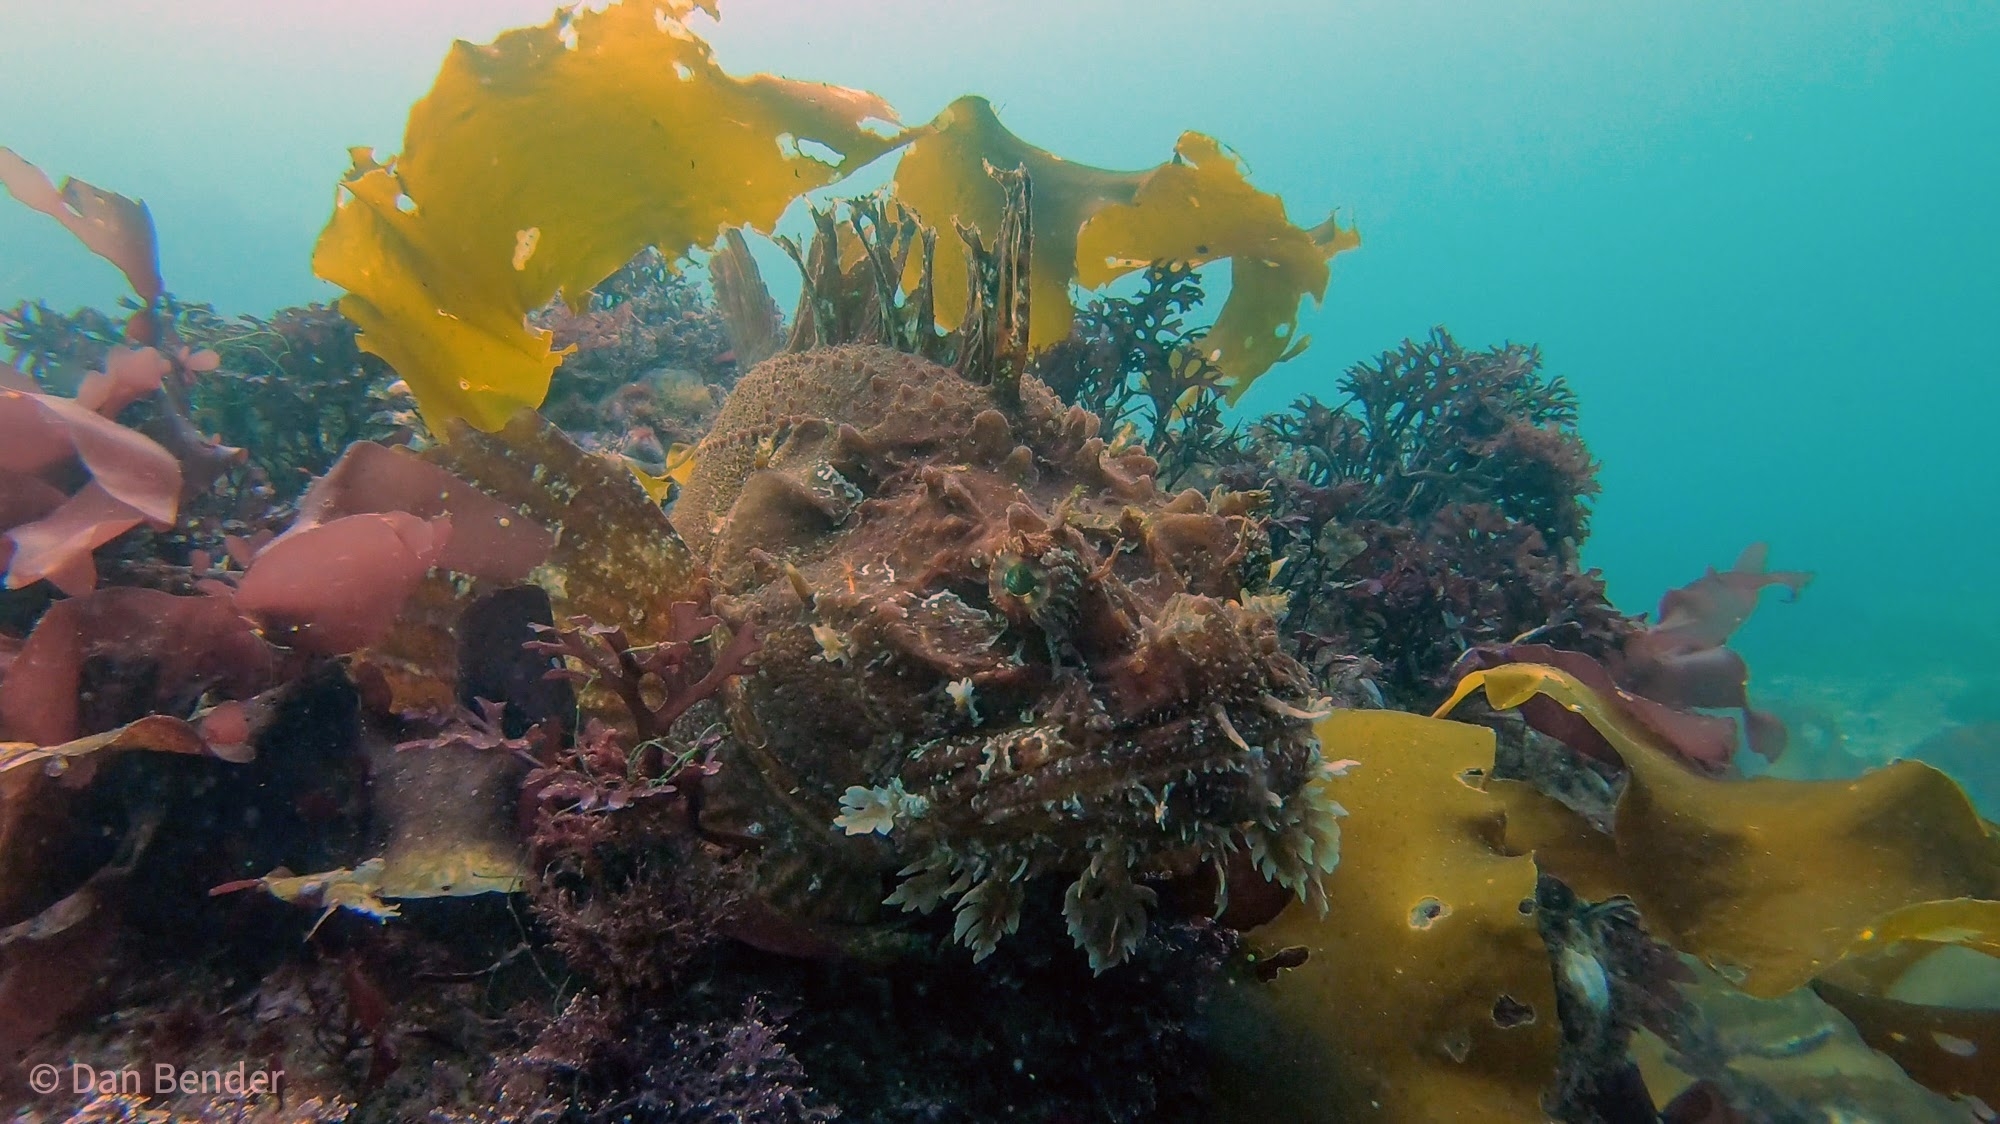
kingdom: Animalia
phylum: Chordata
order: Scorpaeniformes
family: Hemitripteridae
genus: Hemitripterus
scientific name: Hemitripterus americanus
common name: Sea raven
